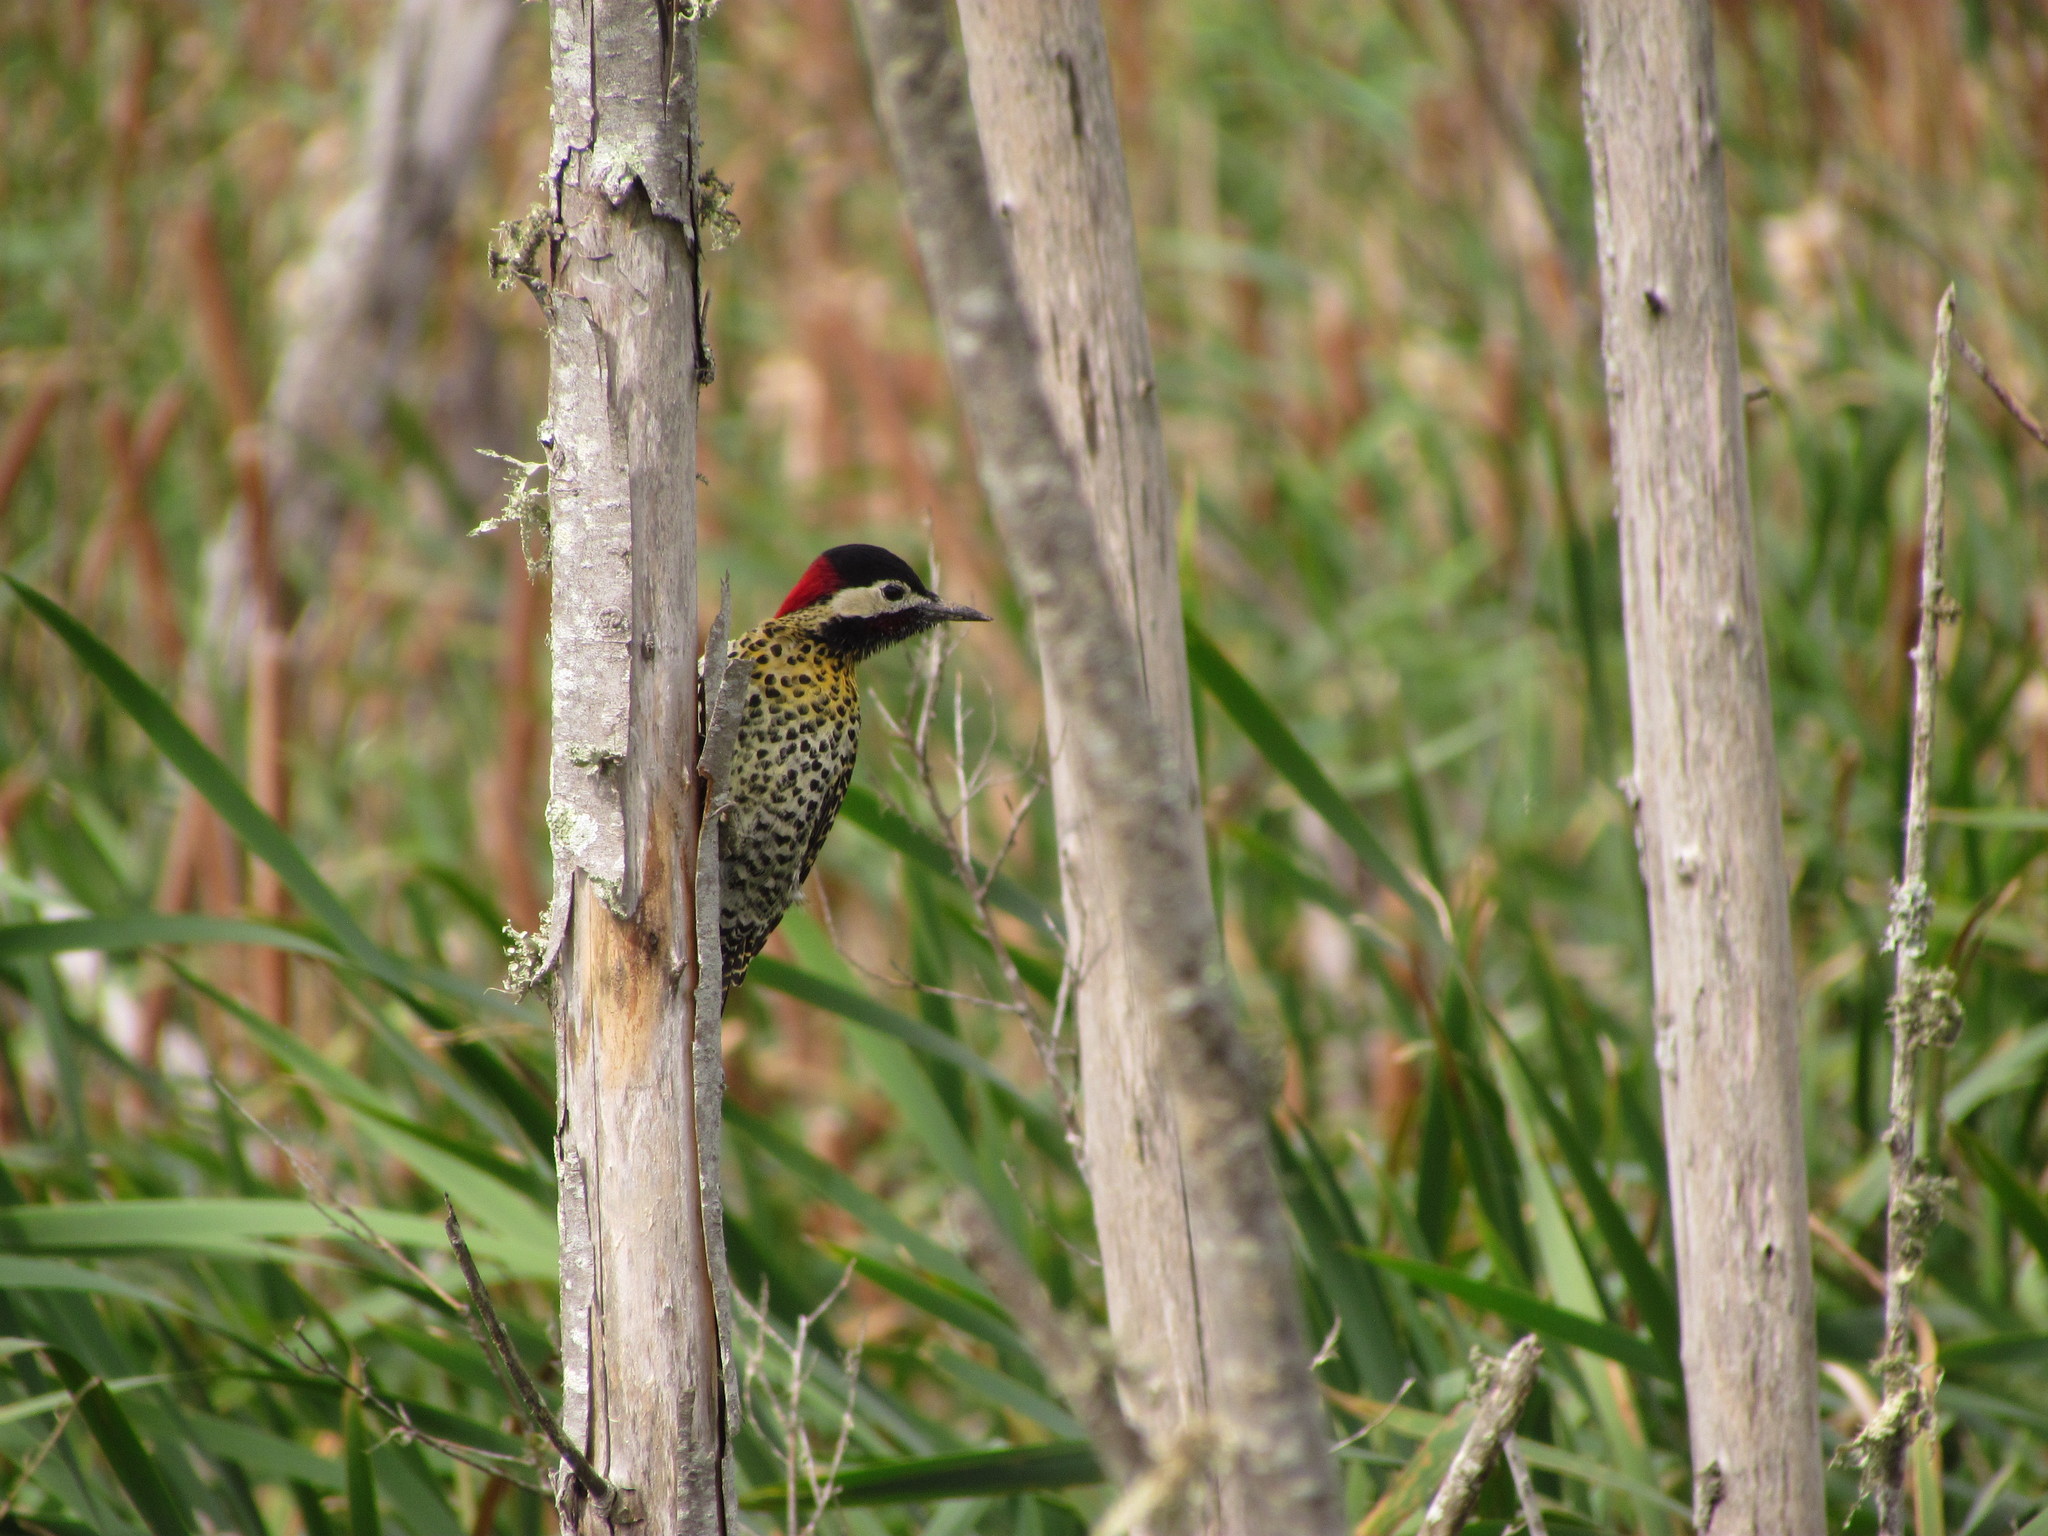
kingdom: Animalia
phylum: Chordata
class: Aves
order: Piciformes
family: Picidae
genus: Colaptes
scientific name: Colaptes melanochloros
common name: Green-barred woodpecker
